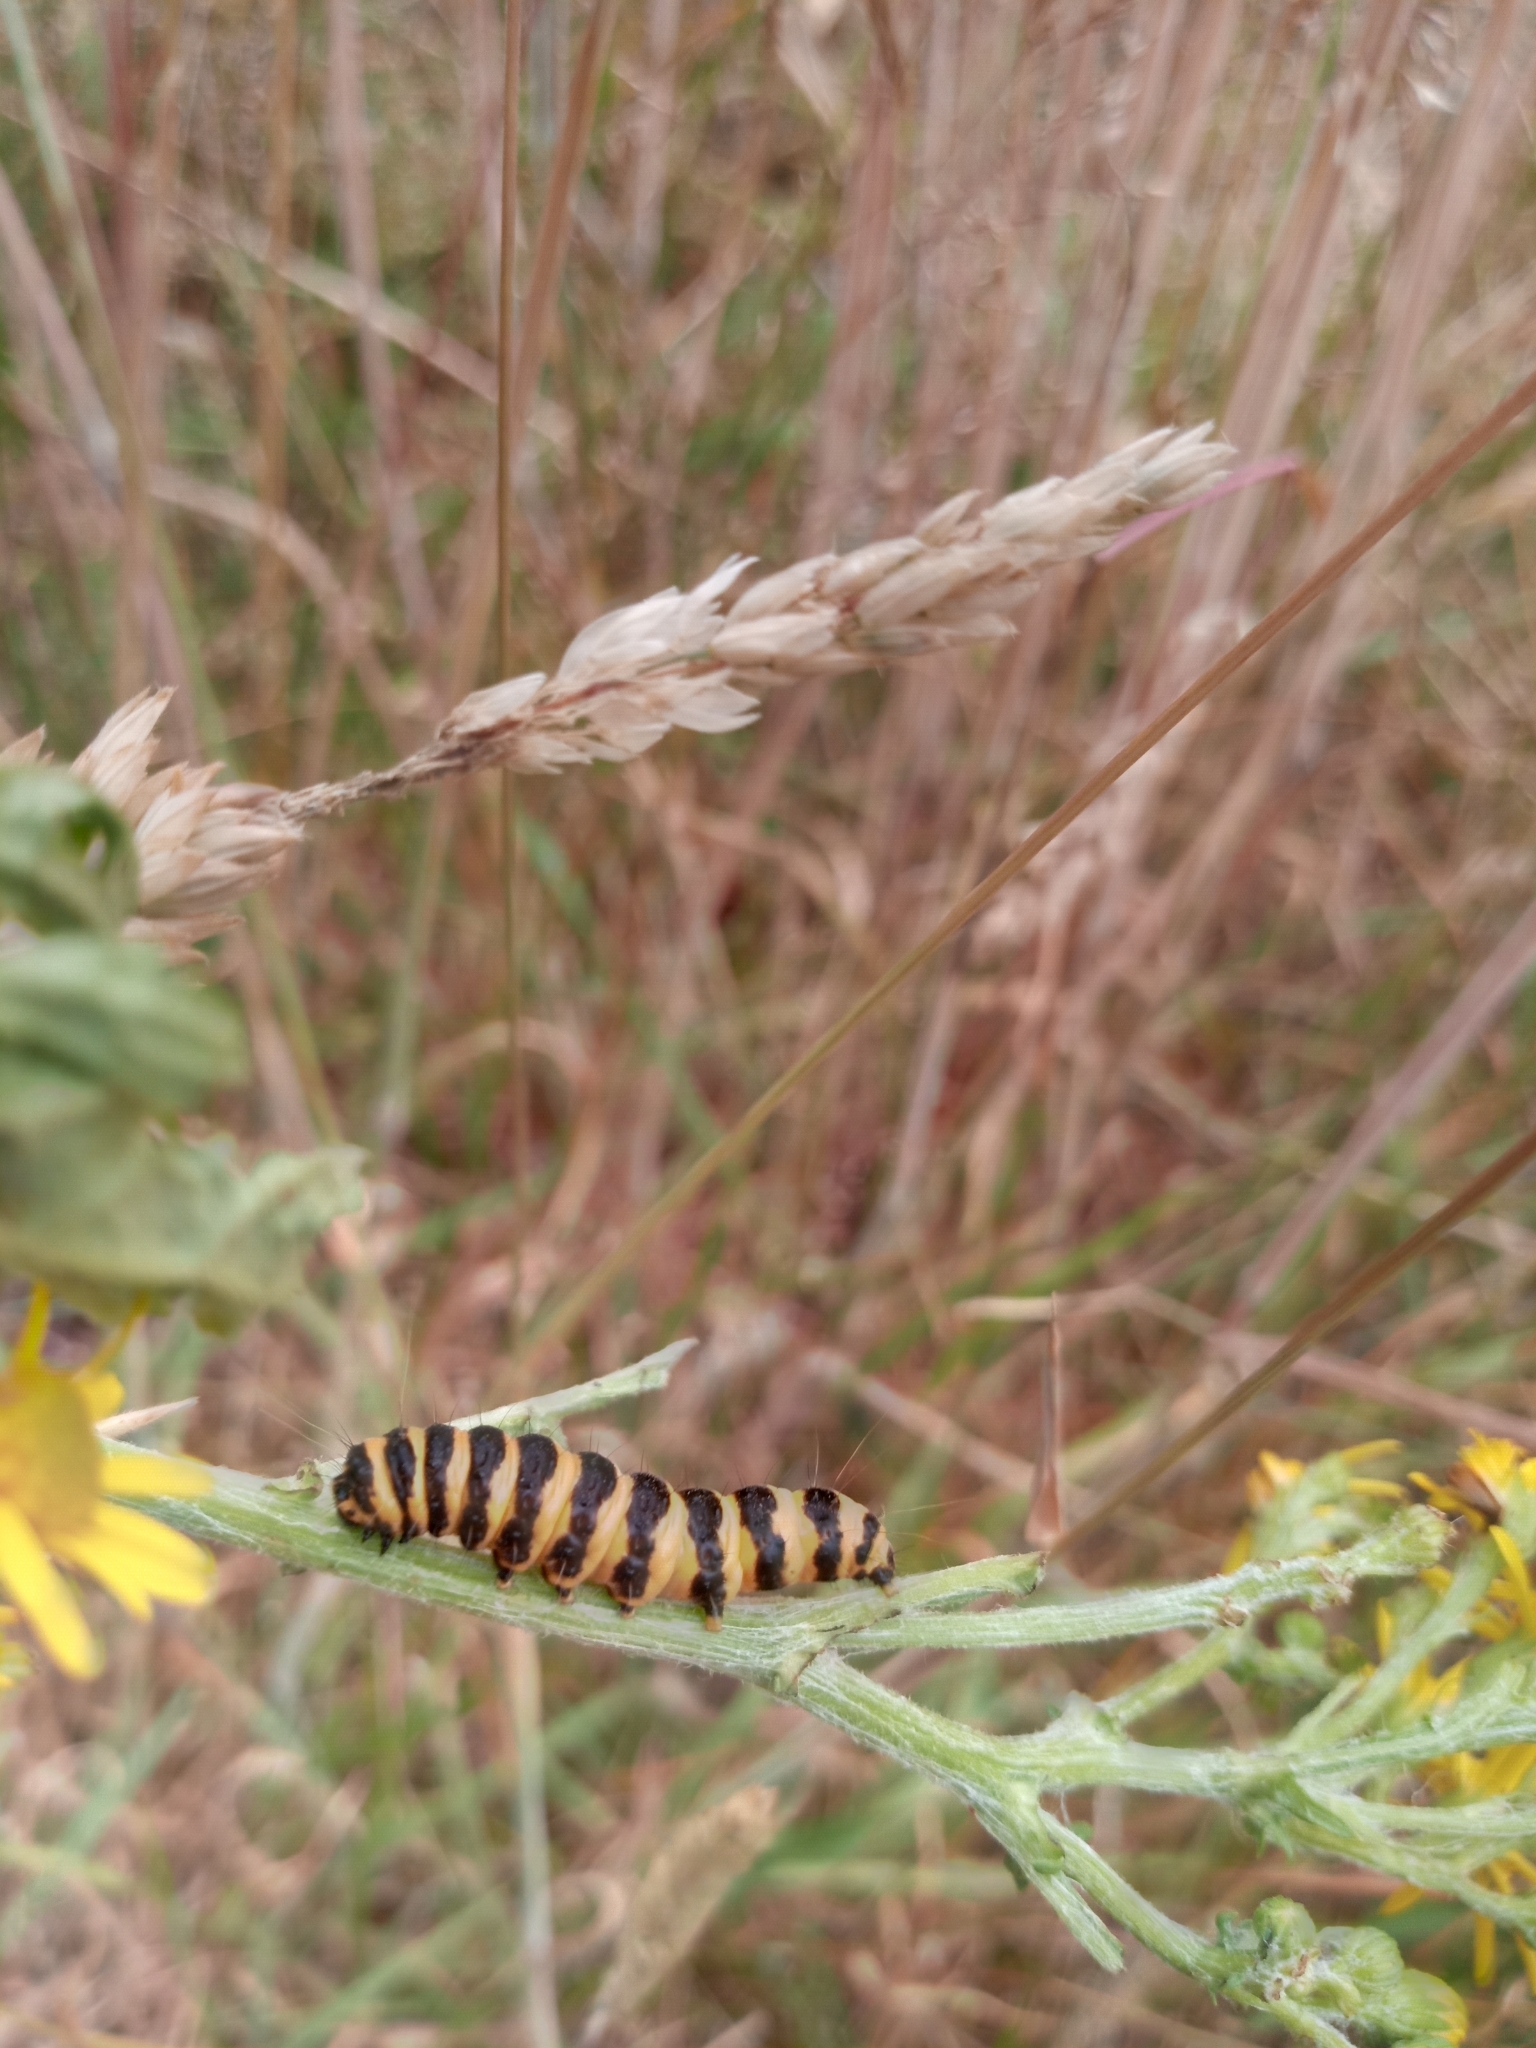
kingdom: Animalia
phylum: Arthropoda
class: Insecta
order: Lepidoptera
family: Erebidae
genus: Tyria
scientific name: Tyria jacobaeae
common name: Cinnabar
